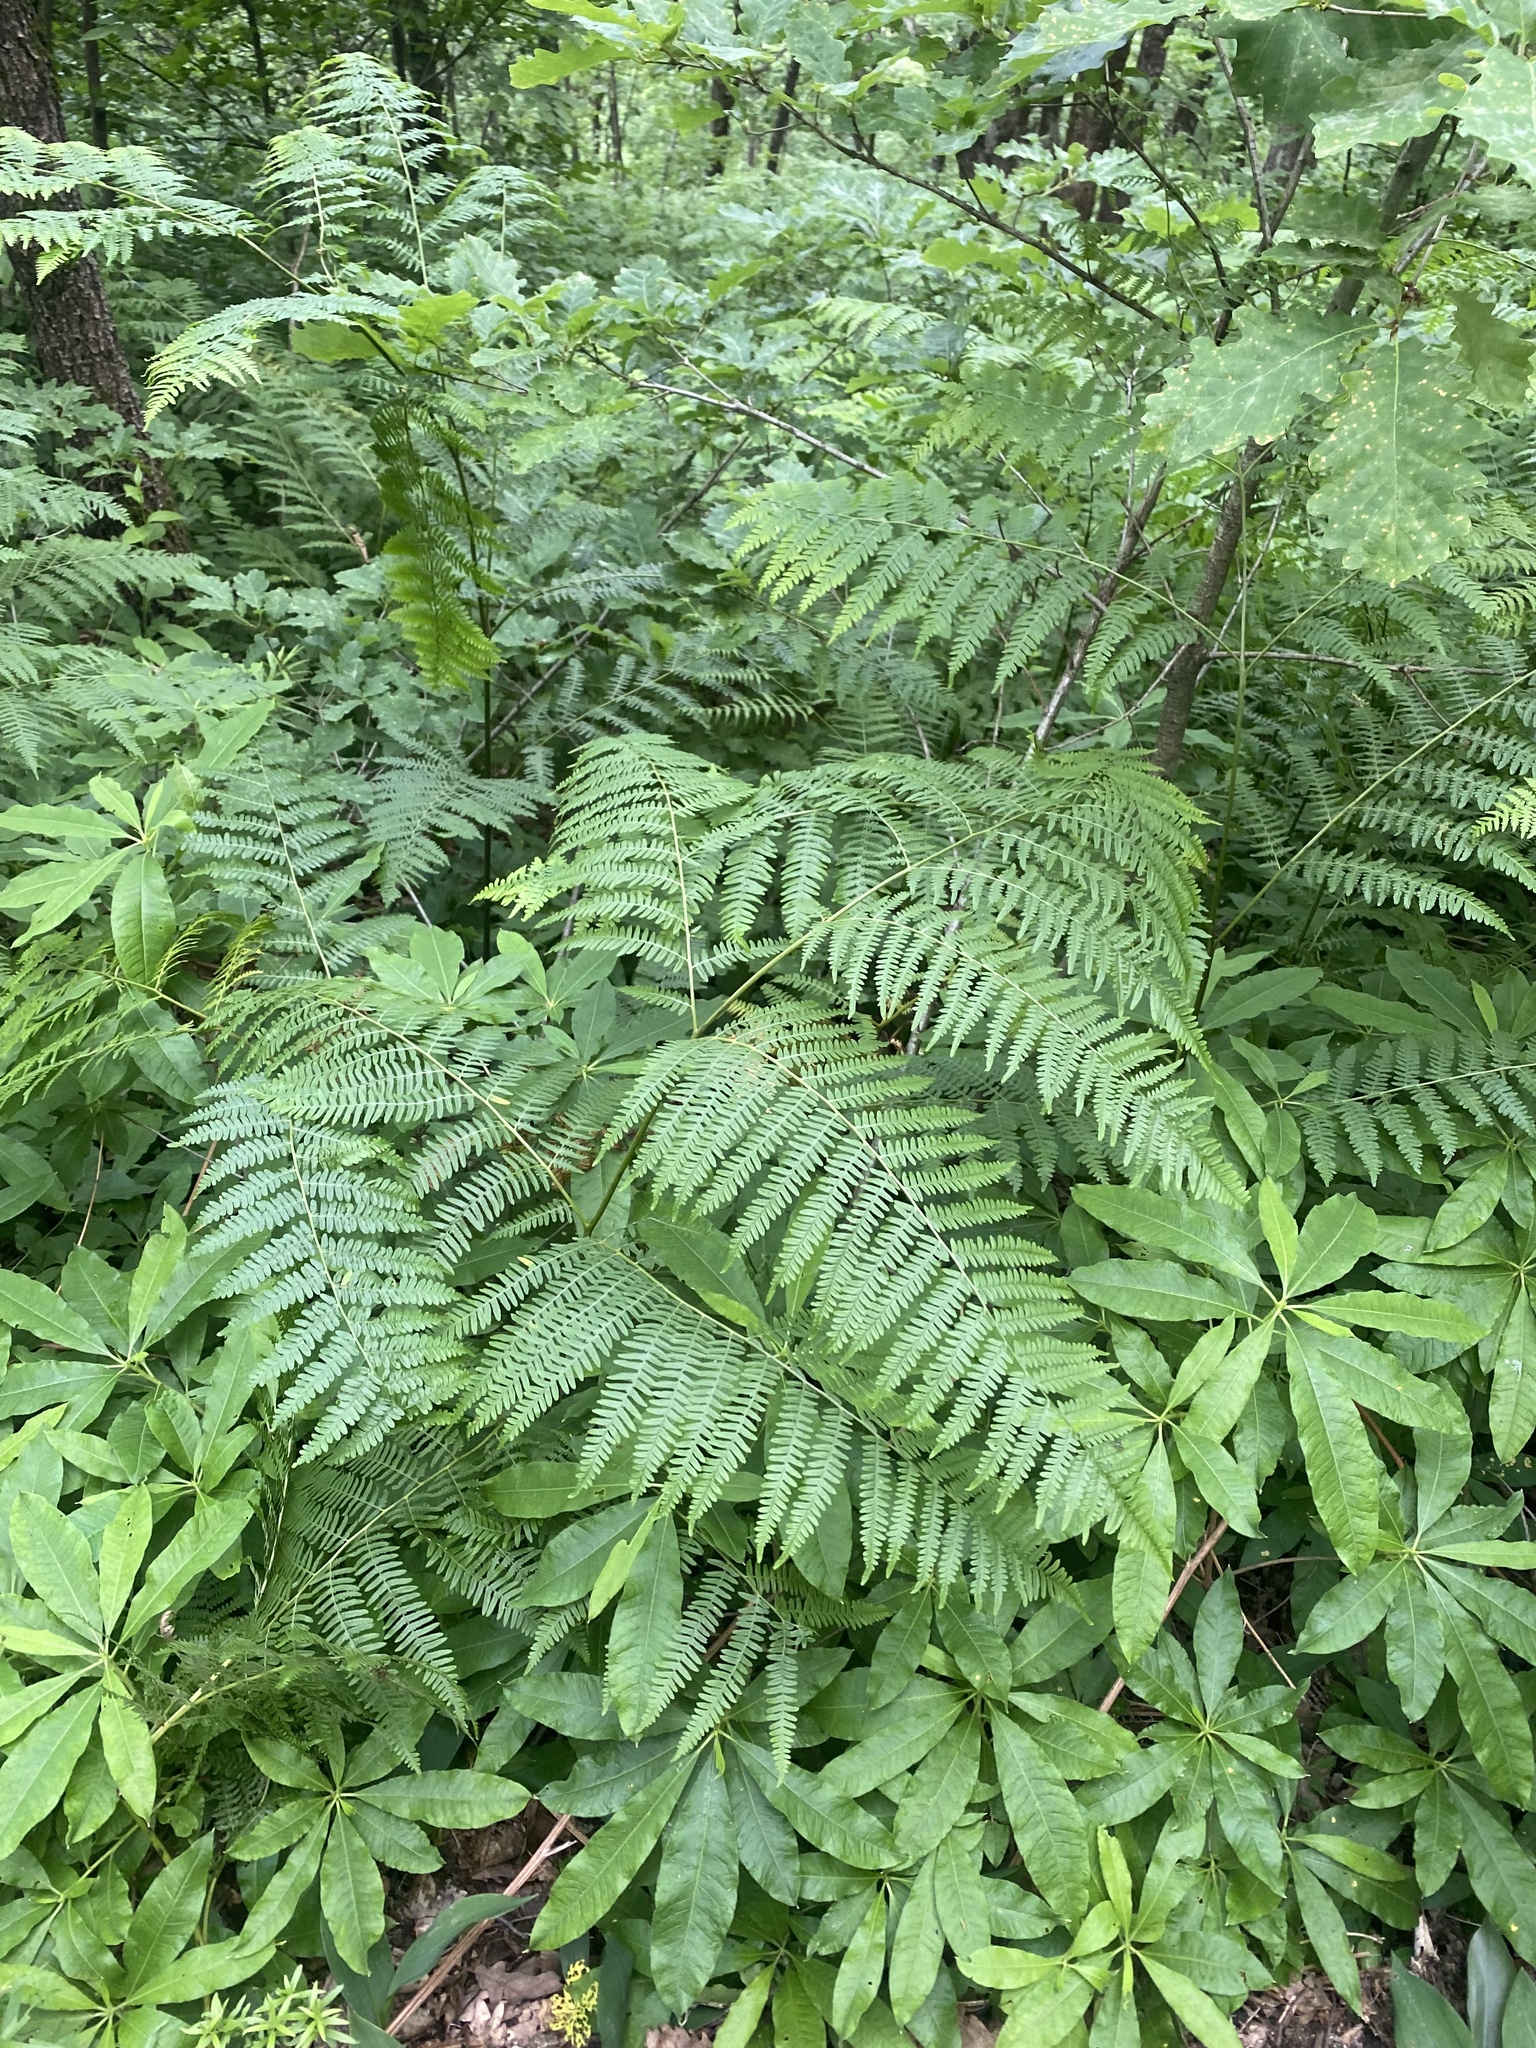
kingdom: Plantae
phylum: Tracheophyta
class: Polypodiopsida
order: Polypodiales
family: Dennstaedtiaceae
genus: Pteridium
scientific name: Pteridium tauricum
